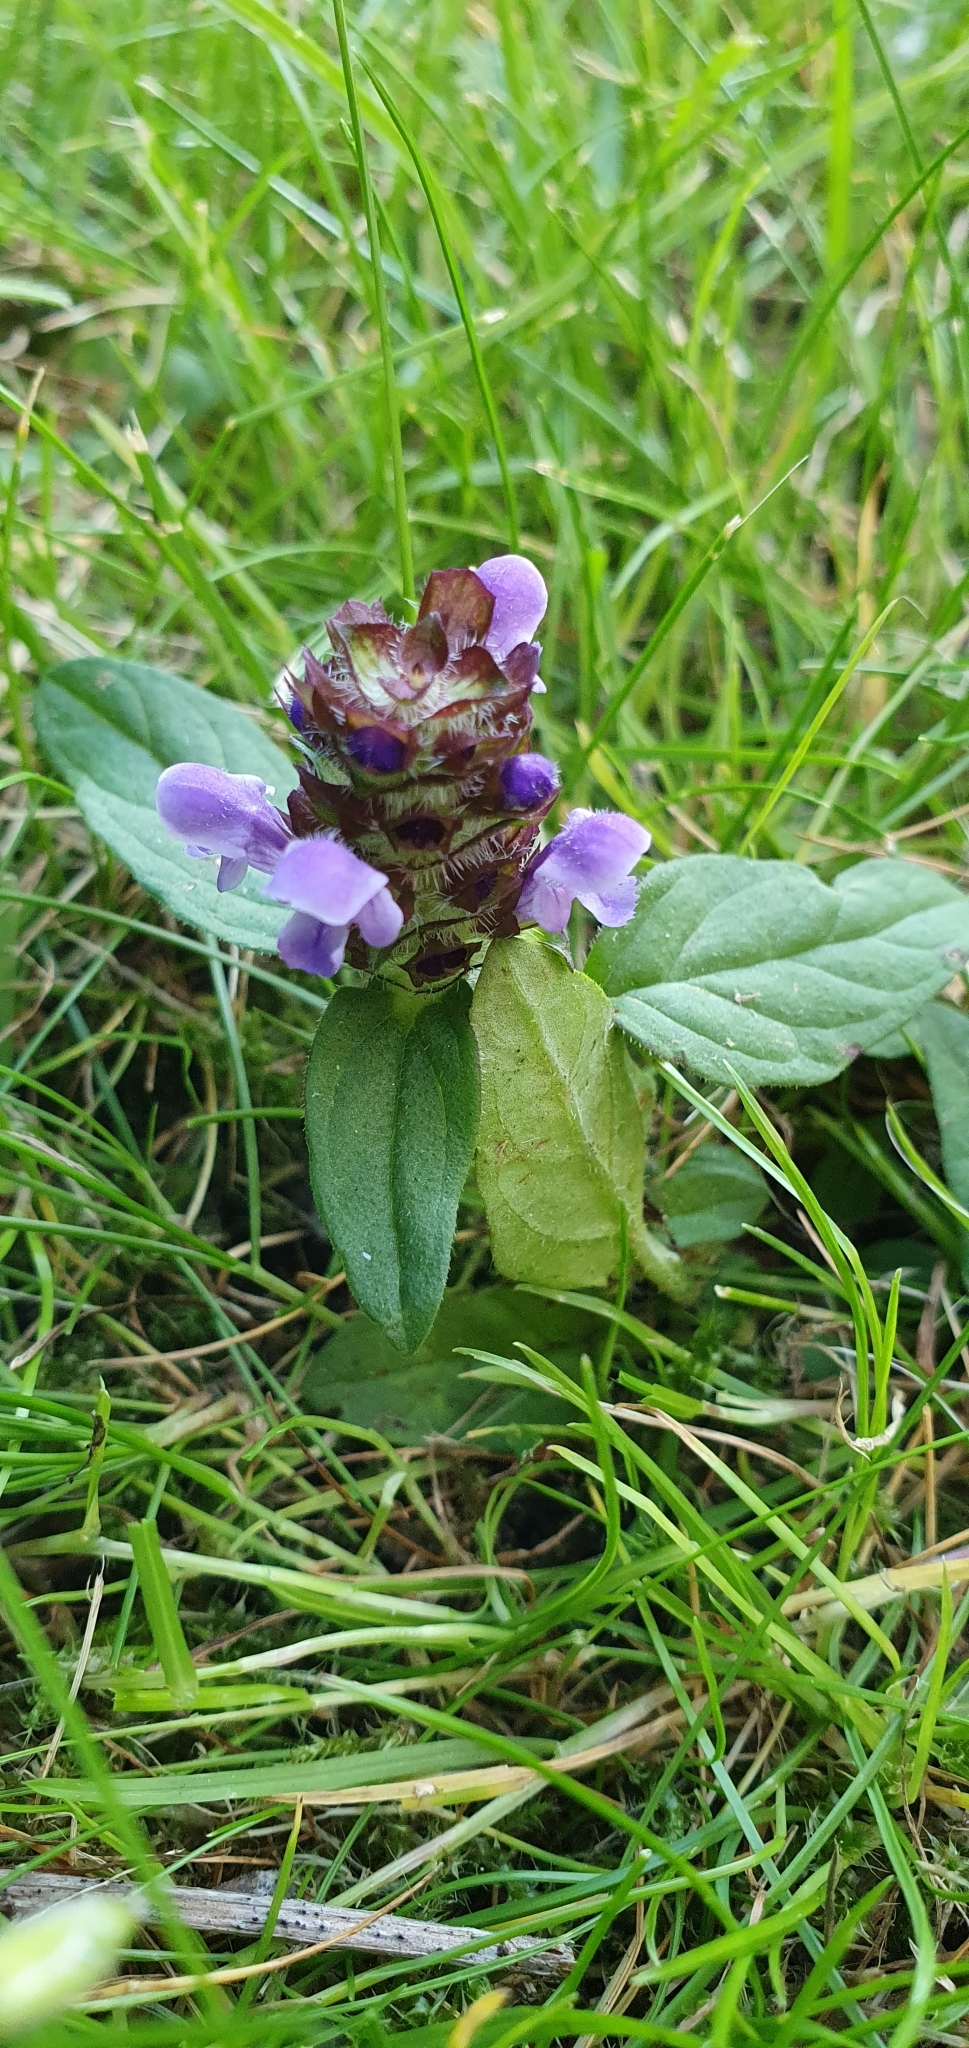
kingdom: Plantae
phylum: Tracheophyta
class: Magnoliopsida
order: Lamiales
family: Lamiaceae
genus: Prunella
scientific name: Prunella vulgaris
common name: Heal-all
